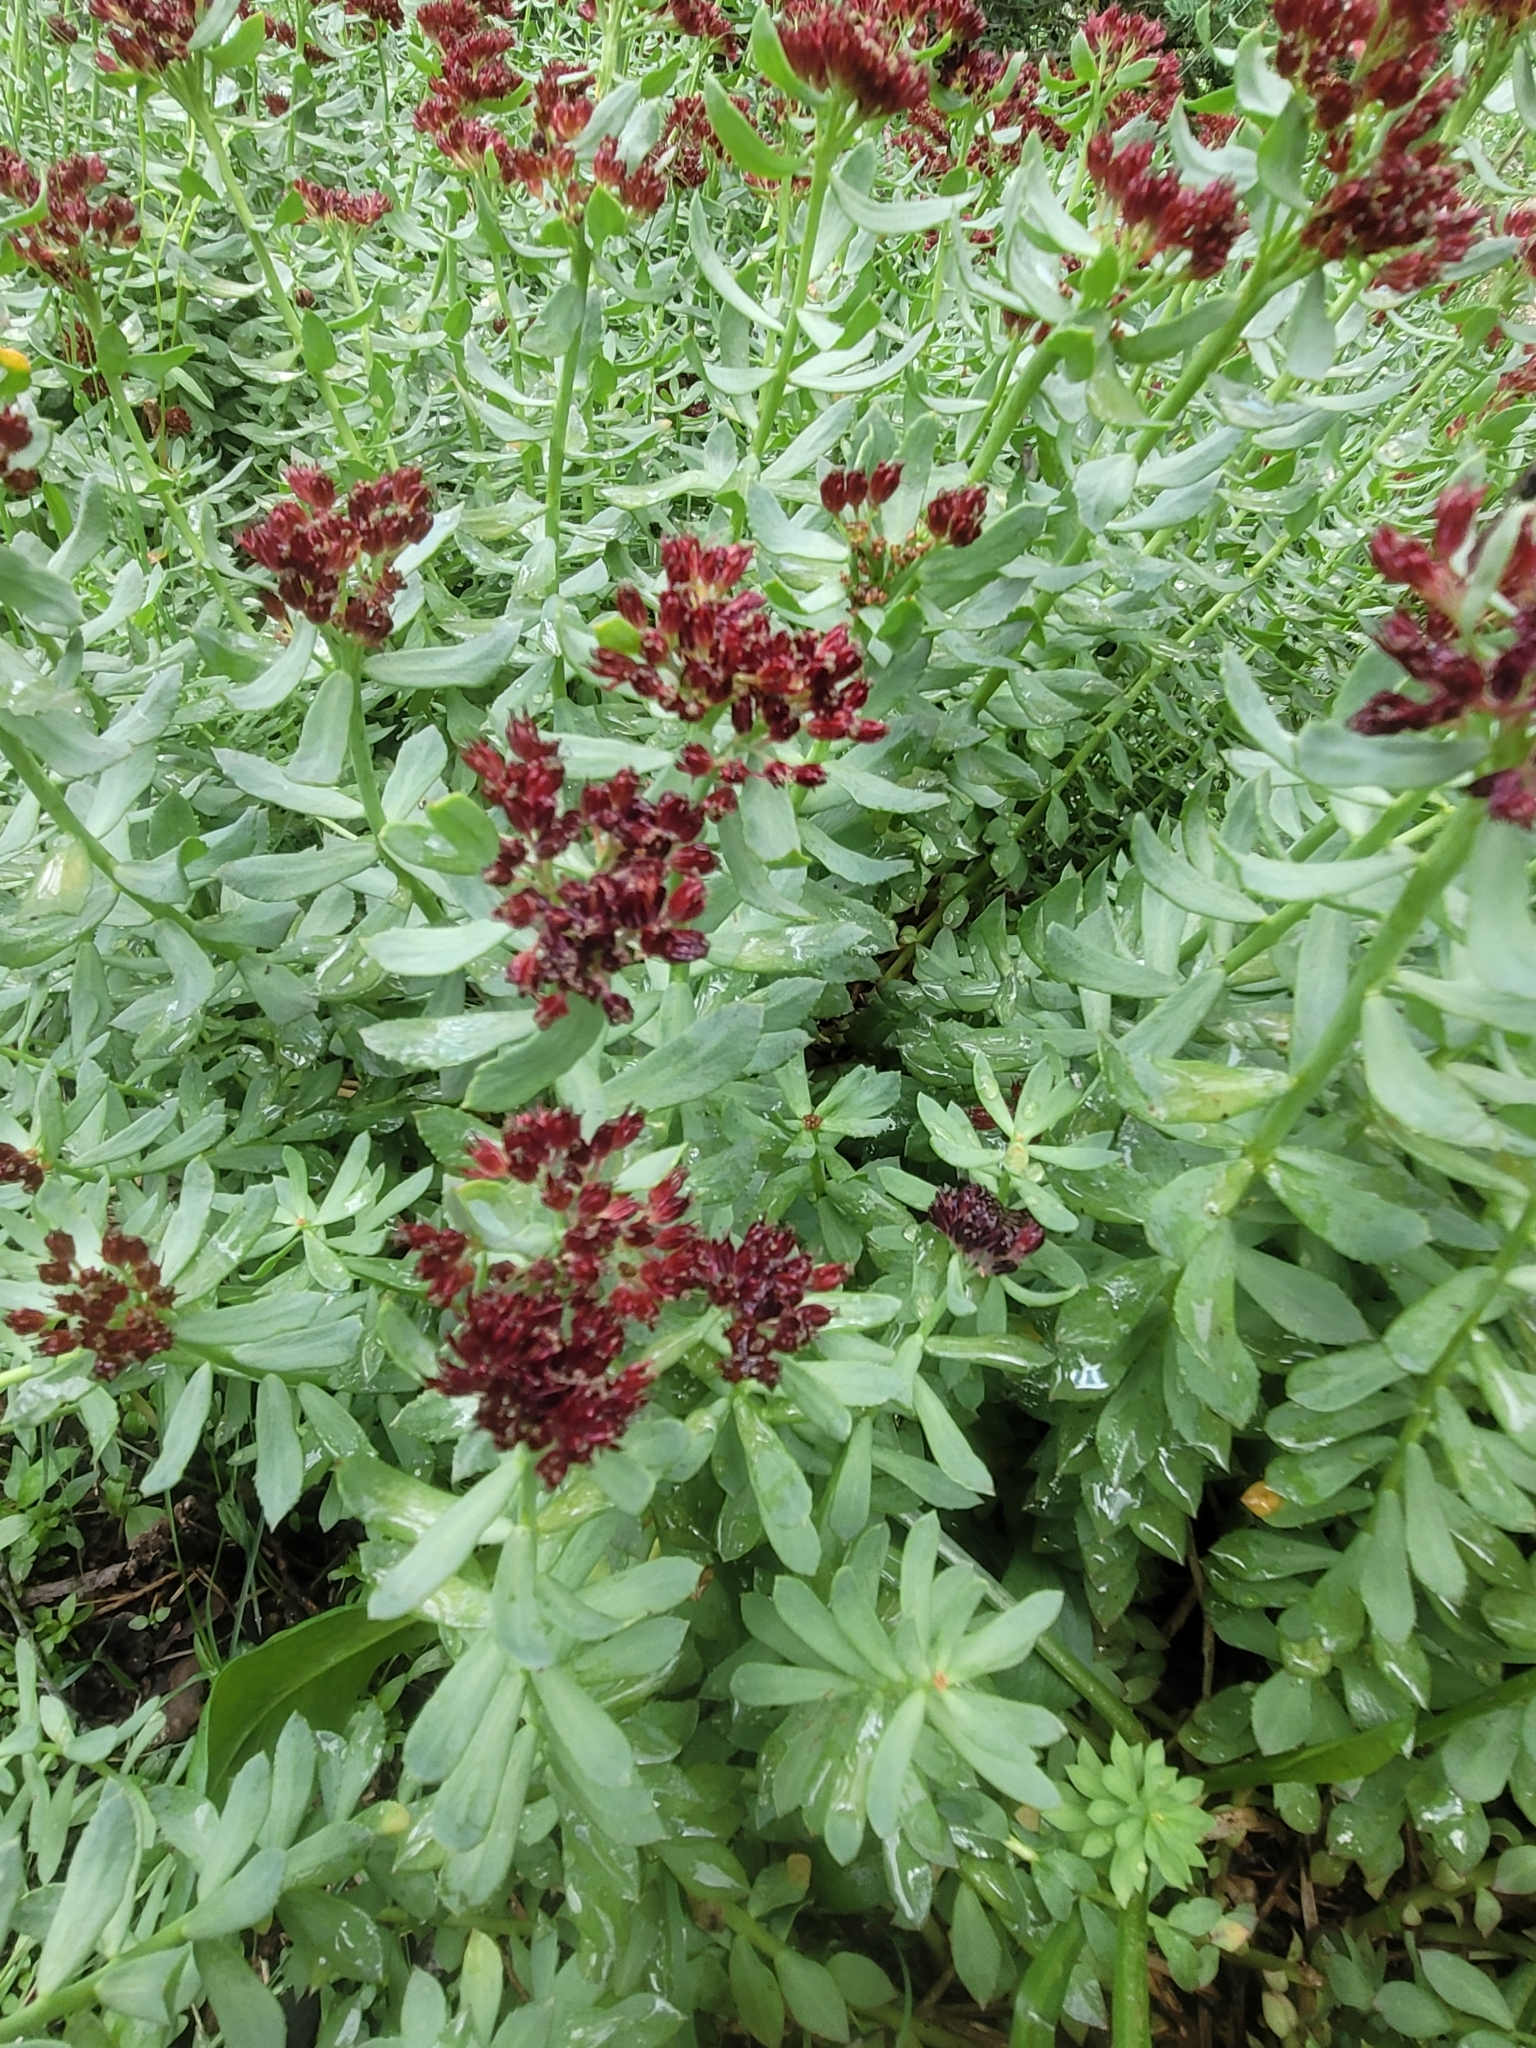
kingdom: Plantae
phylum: Tracheophyta
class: Magnoliopsida
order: Saxifragales
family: Crassulaceae
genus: Rhodiola
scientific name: Rhodiola integrifolia
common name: Western roseroot
